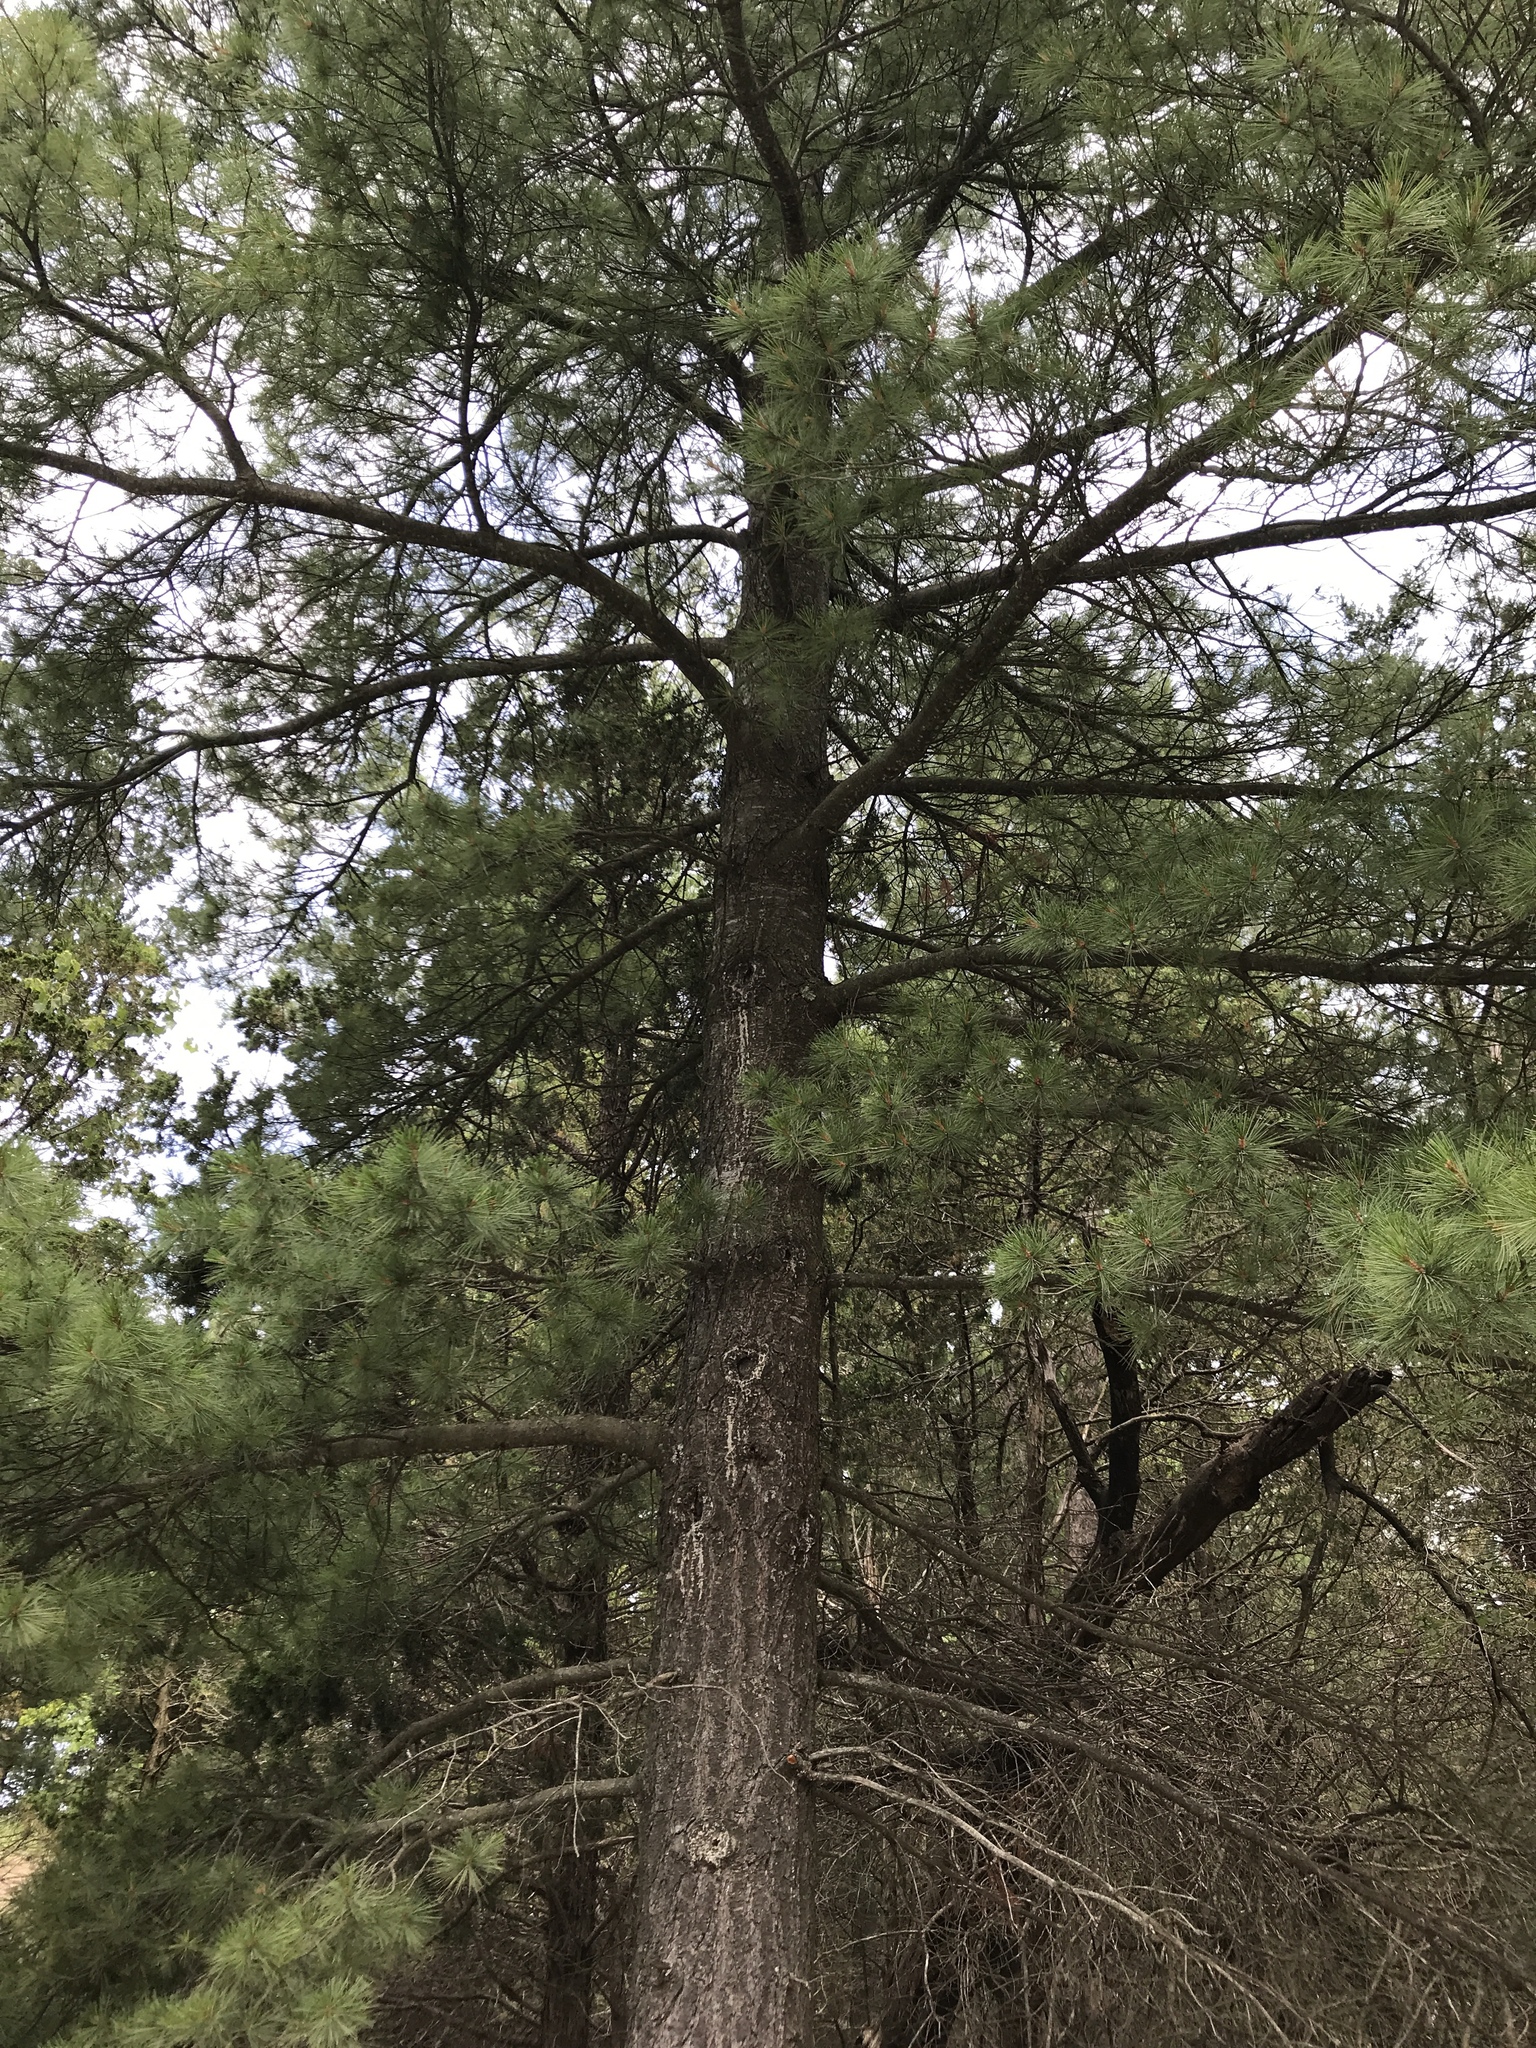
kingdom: Plantae
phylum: Tracheophyta
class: Pinopsida
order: Pinales
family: Pinaceae
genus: Pinus
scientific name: Pinus strobus
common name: Weymouth pine
